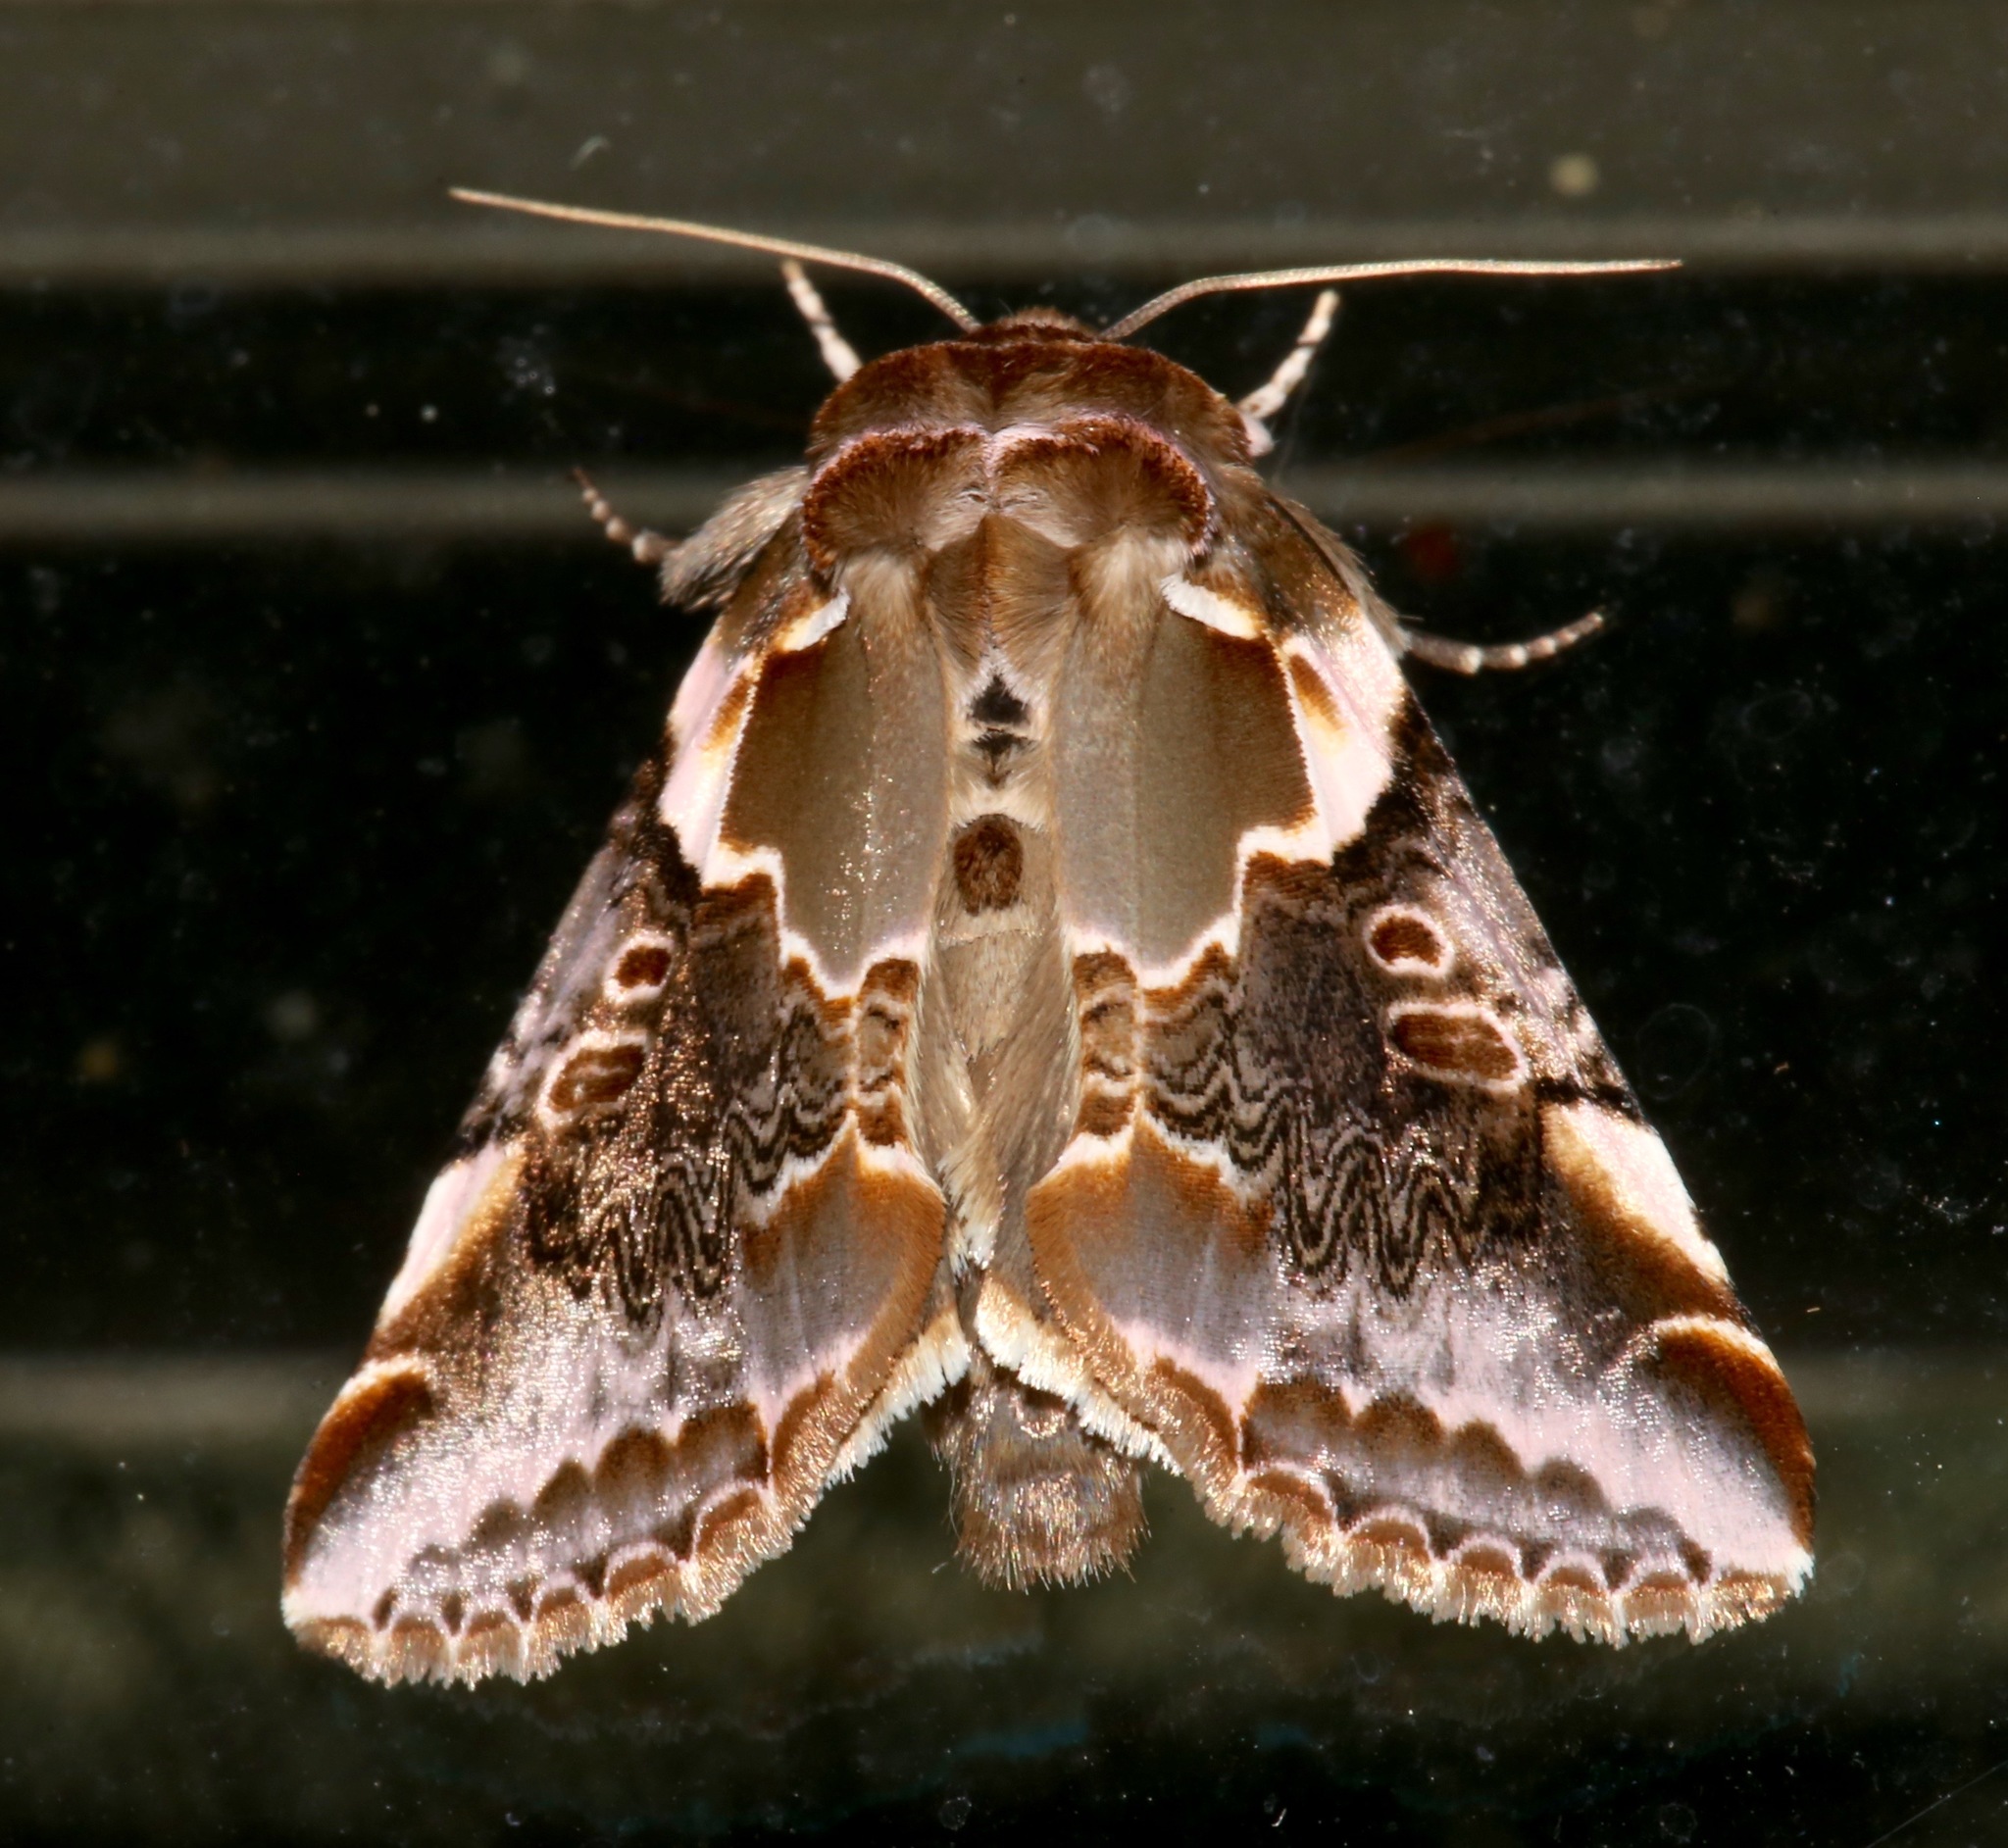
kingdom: Animalia
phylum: Arthropoda
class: Insecta
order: Lepidoptera
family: Drepanidae
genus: Habrosyne
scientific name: Habrosyne gloriosa
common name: Glorious habrosyne moth
